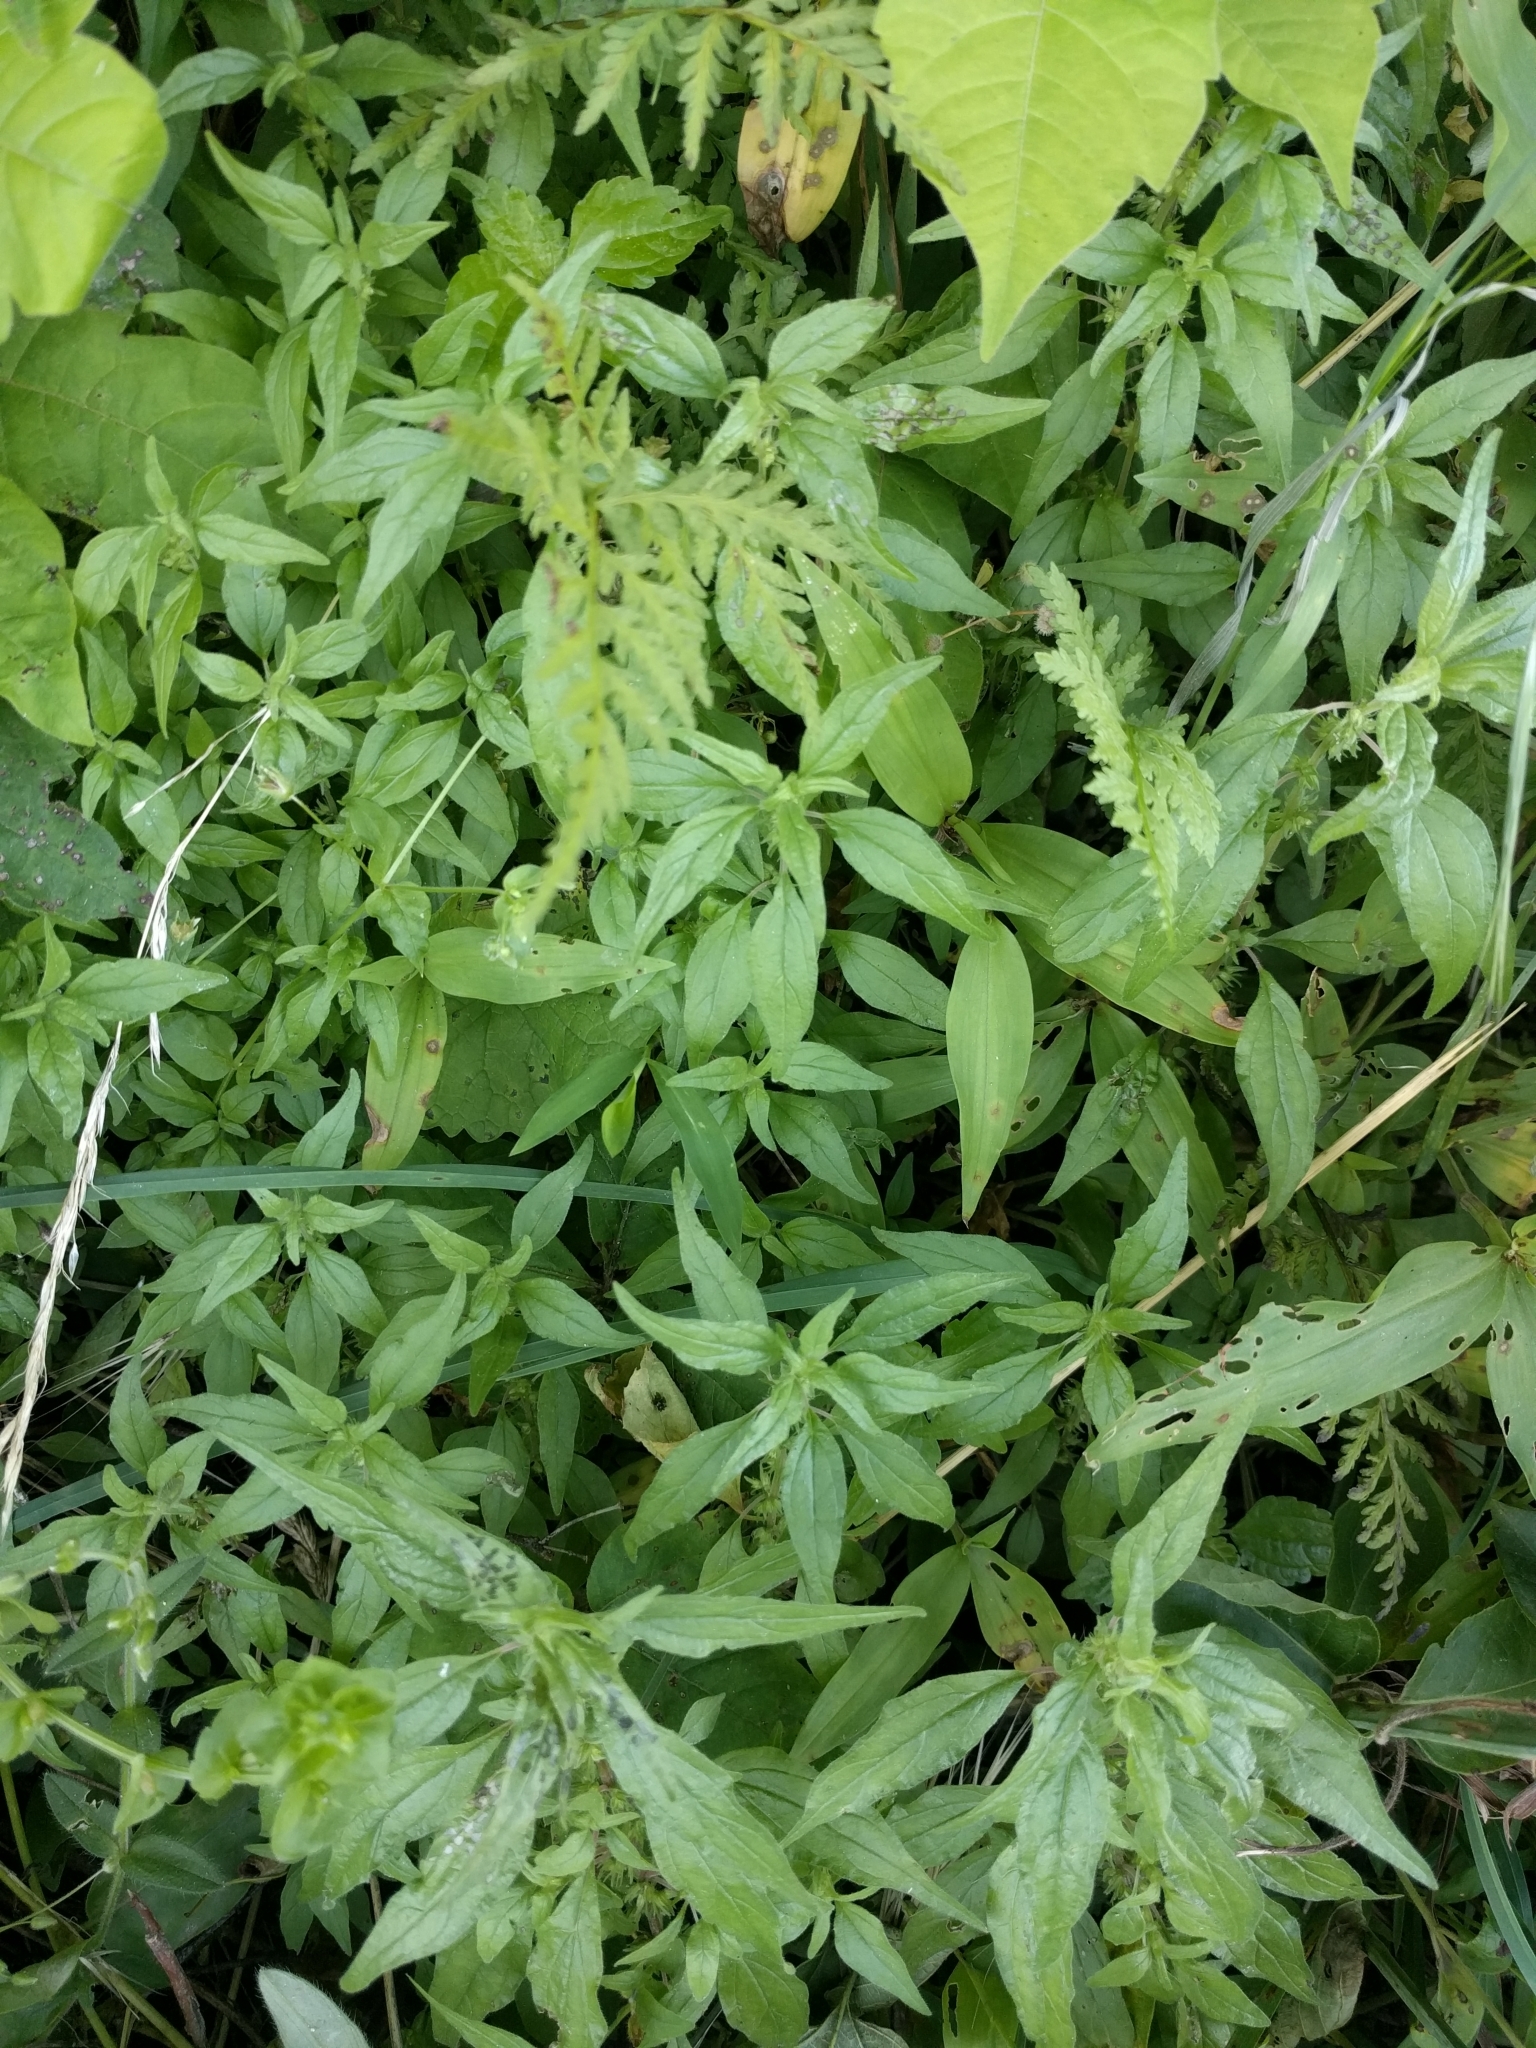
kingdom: Plantae
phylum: Tracheophyta
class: Magnoliopsida
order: Rosales
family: Urticaceae
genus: Parietaria
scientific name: Parietaria pensylvanica
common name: Pennsylvania pellitory
